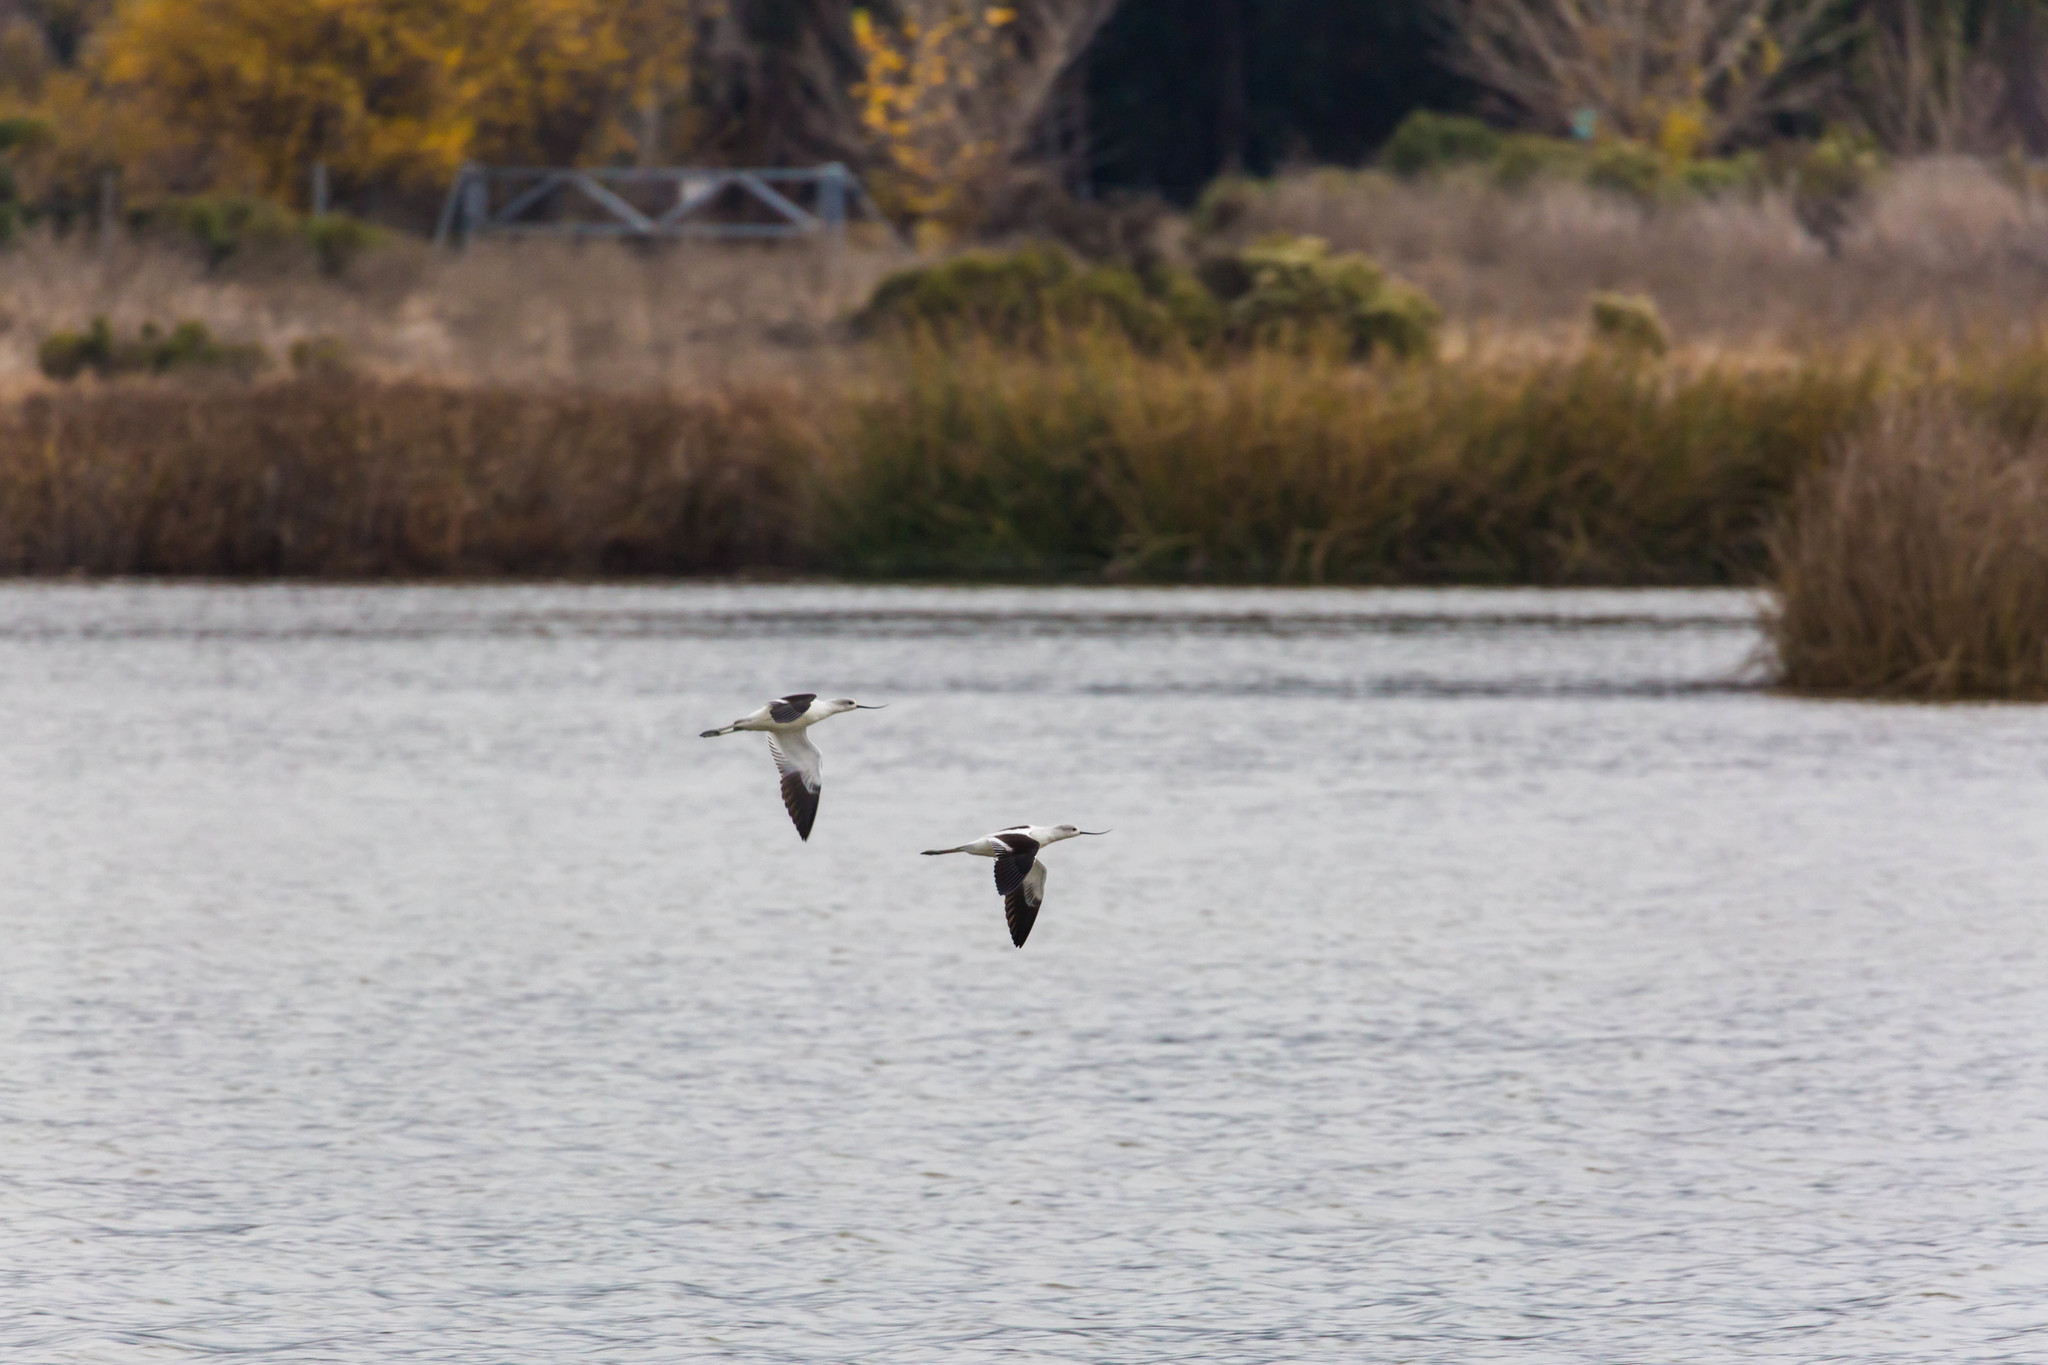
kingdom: Animalia
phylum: Chordata
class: Aves
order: Charadriiformes
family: Recurvirostridae
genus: Recurvirostra
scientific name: Recurvirostra americana
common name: American avocet
